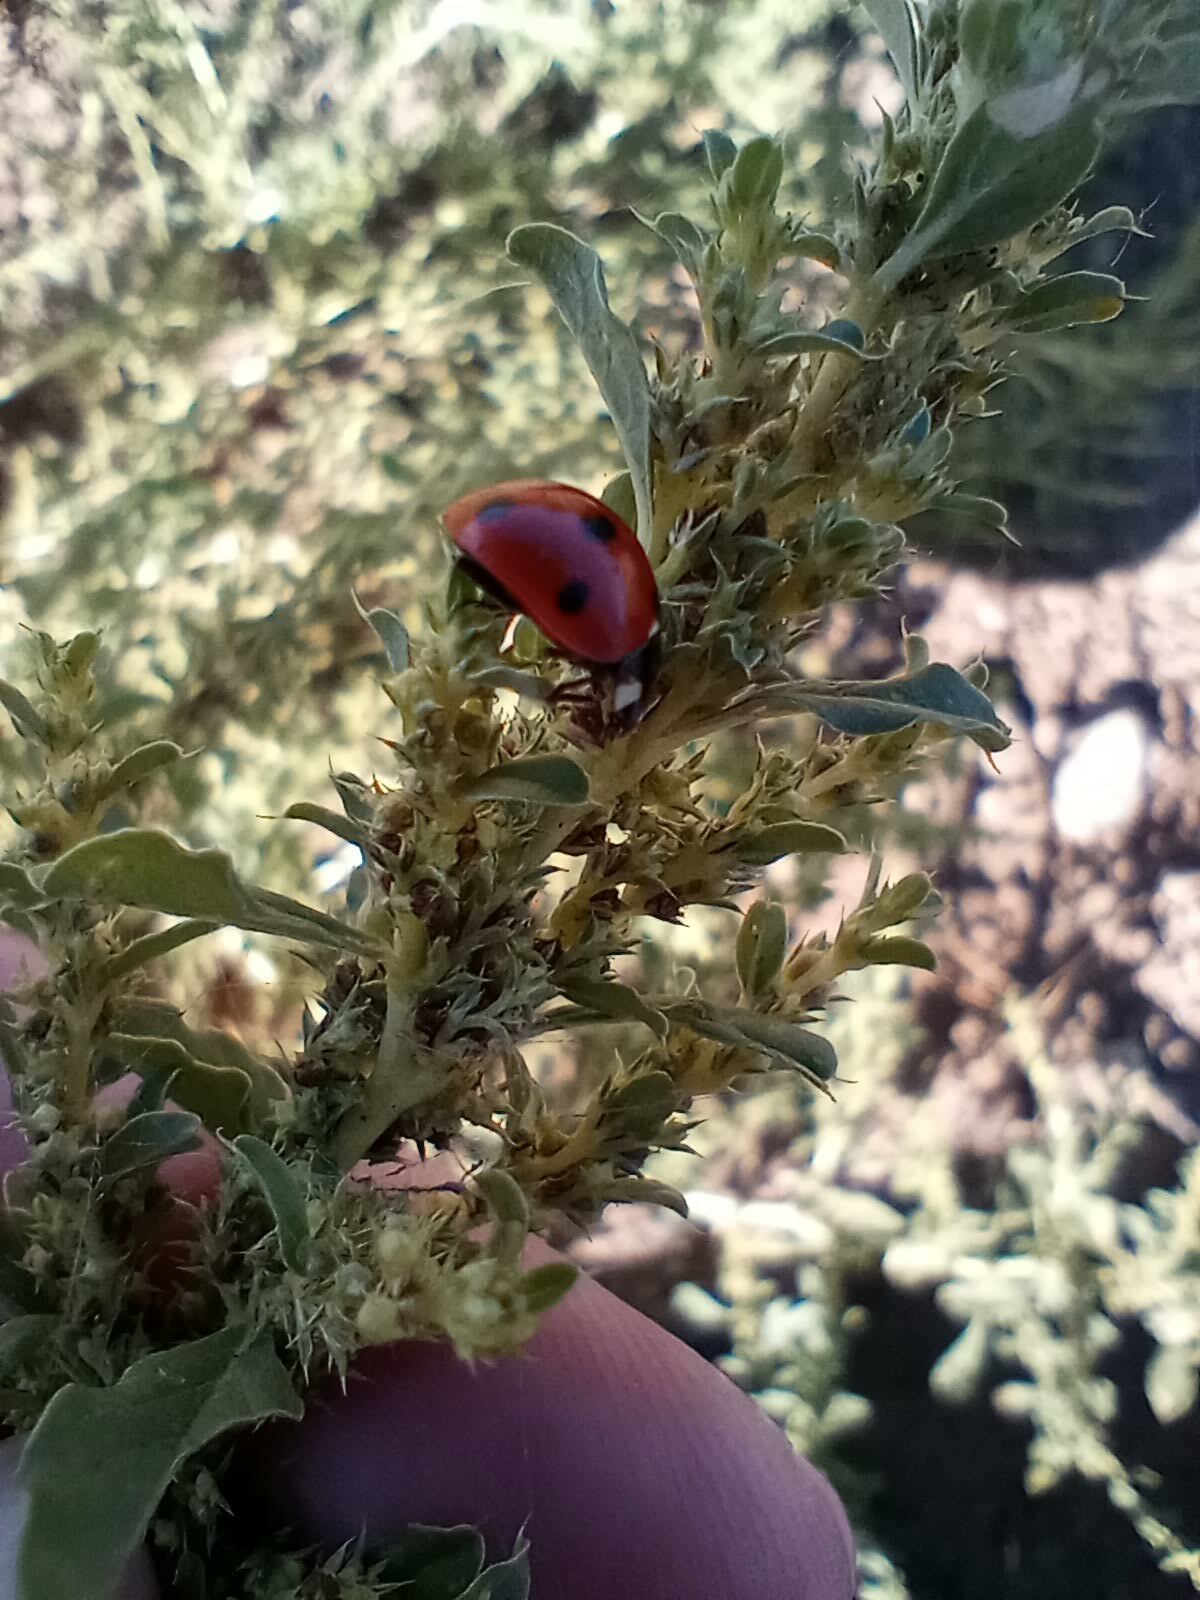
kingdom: Animalia
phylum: Arthropoda
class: Insecta
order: Coleoptera
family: Coccinellidae
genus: Coccinella
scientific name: Coccinella septempunctata
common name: Sevenspotted lady beetle
